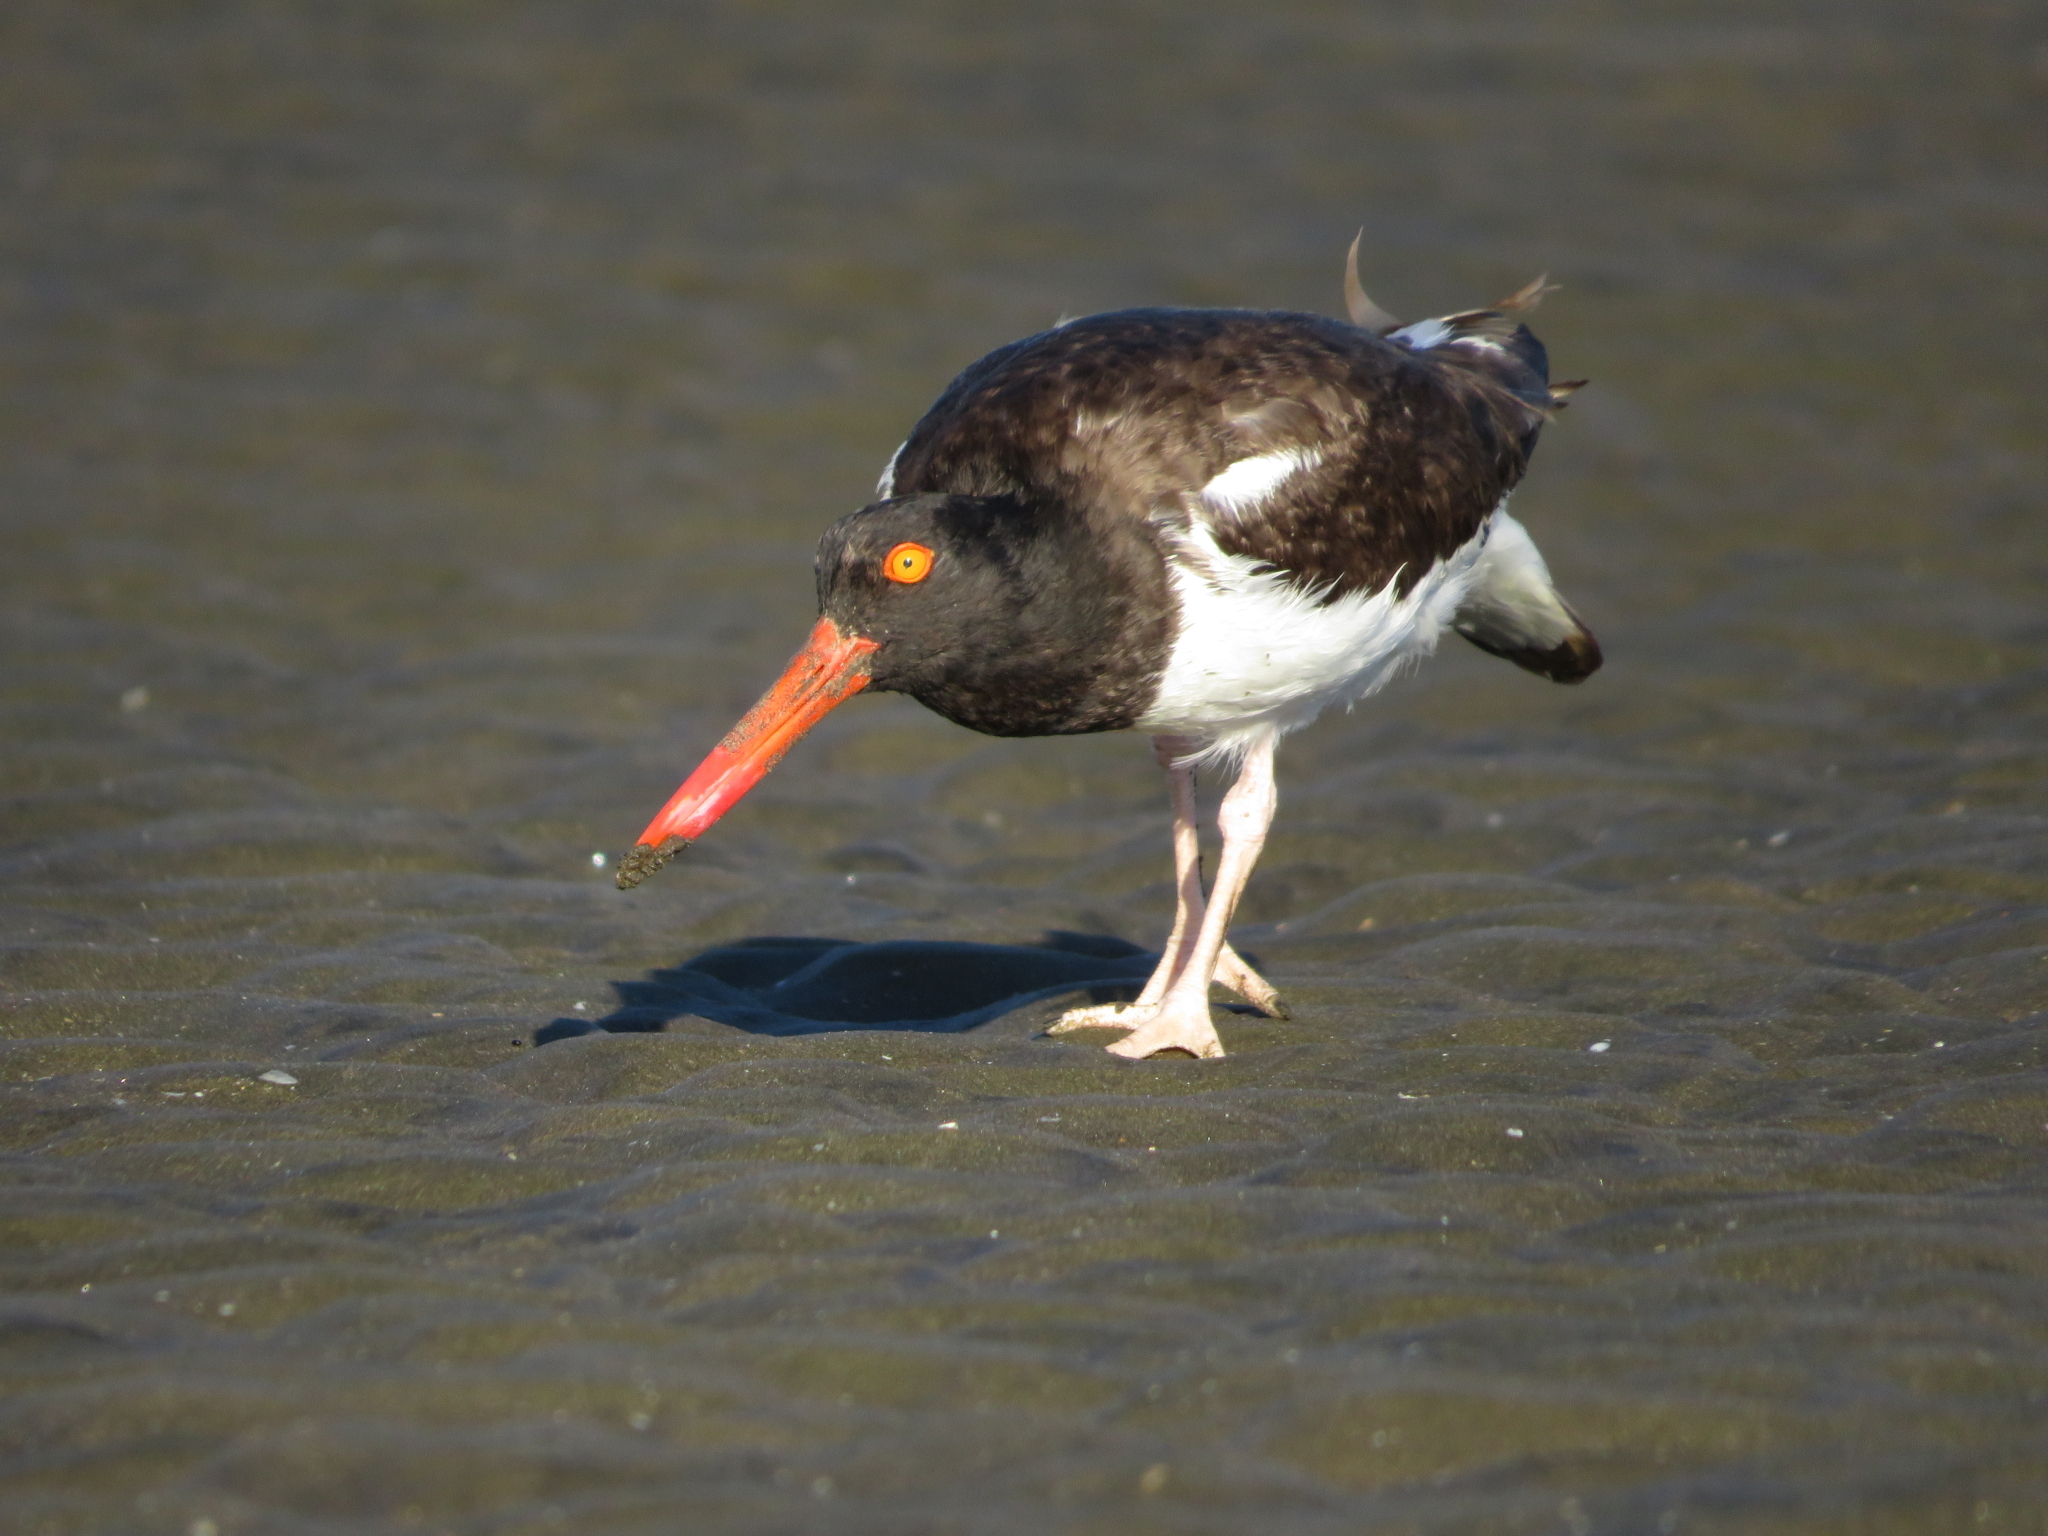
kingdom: Animalia
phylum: Chordata
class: Aves
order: Charadriiformes
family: Haematopodidae
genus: Haematopus
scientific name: Haematopus palliatus
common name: American oystercatcher
